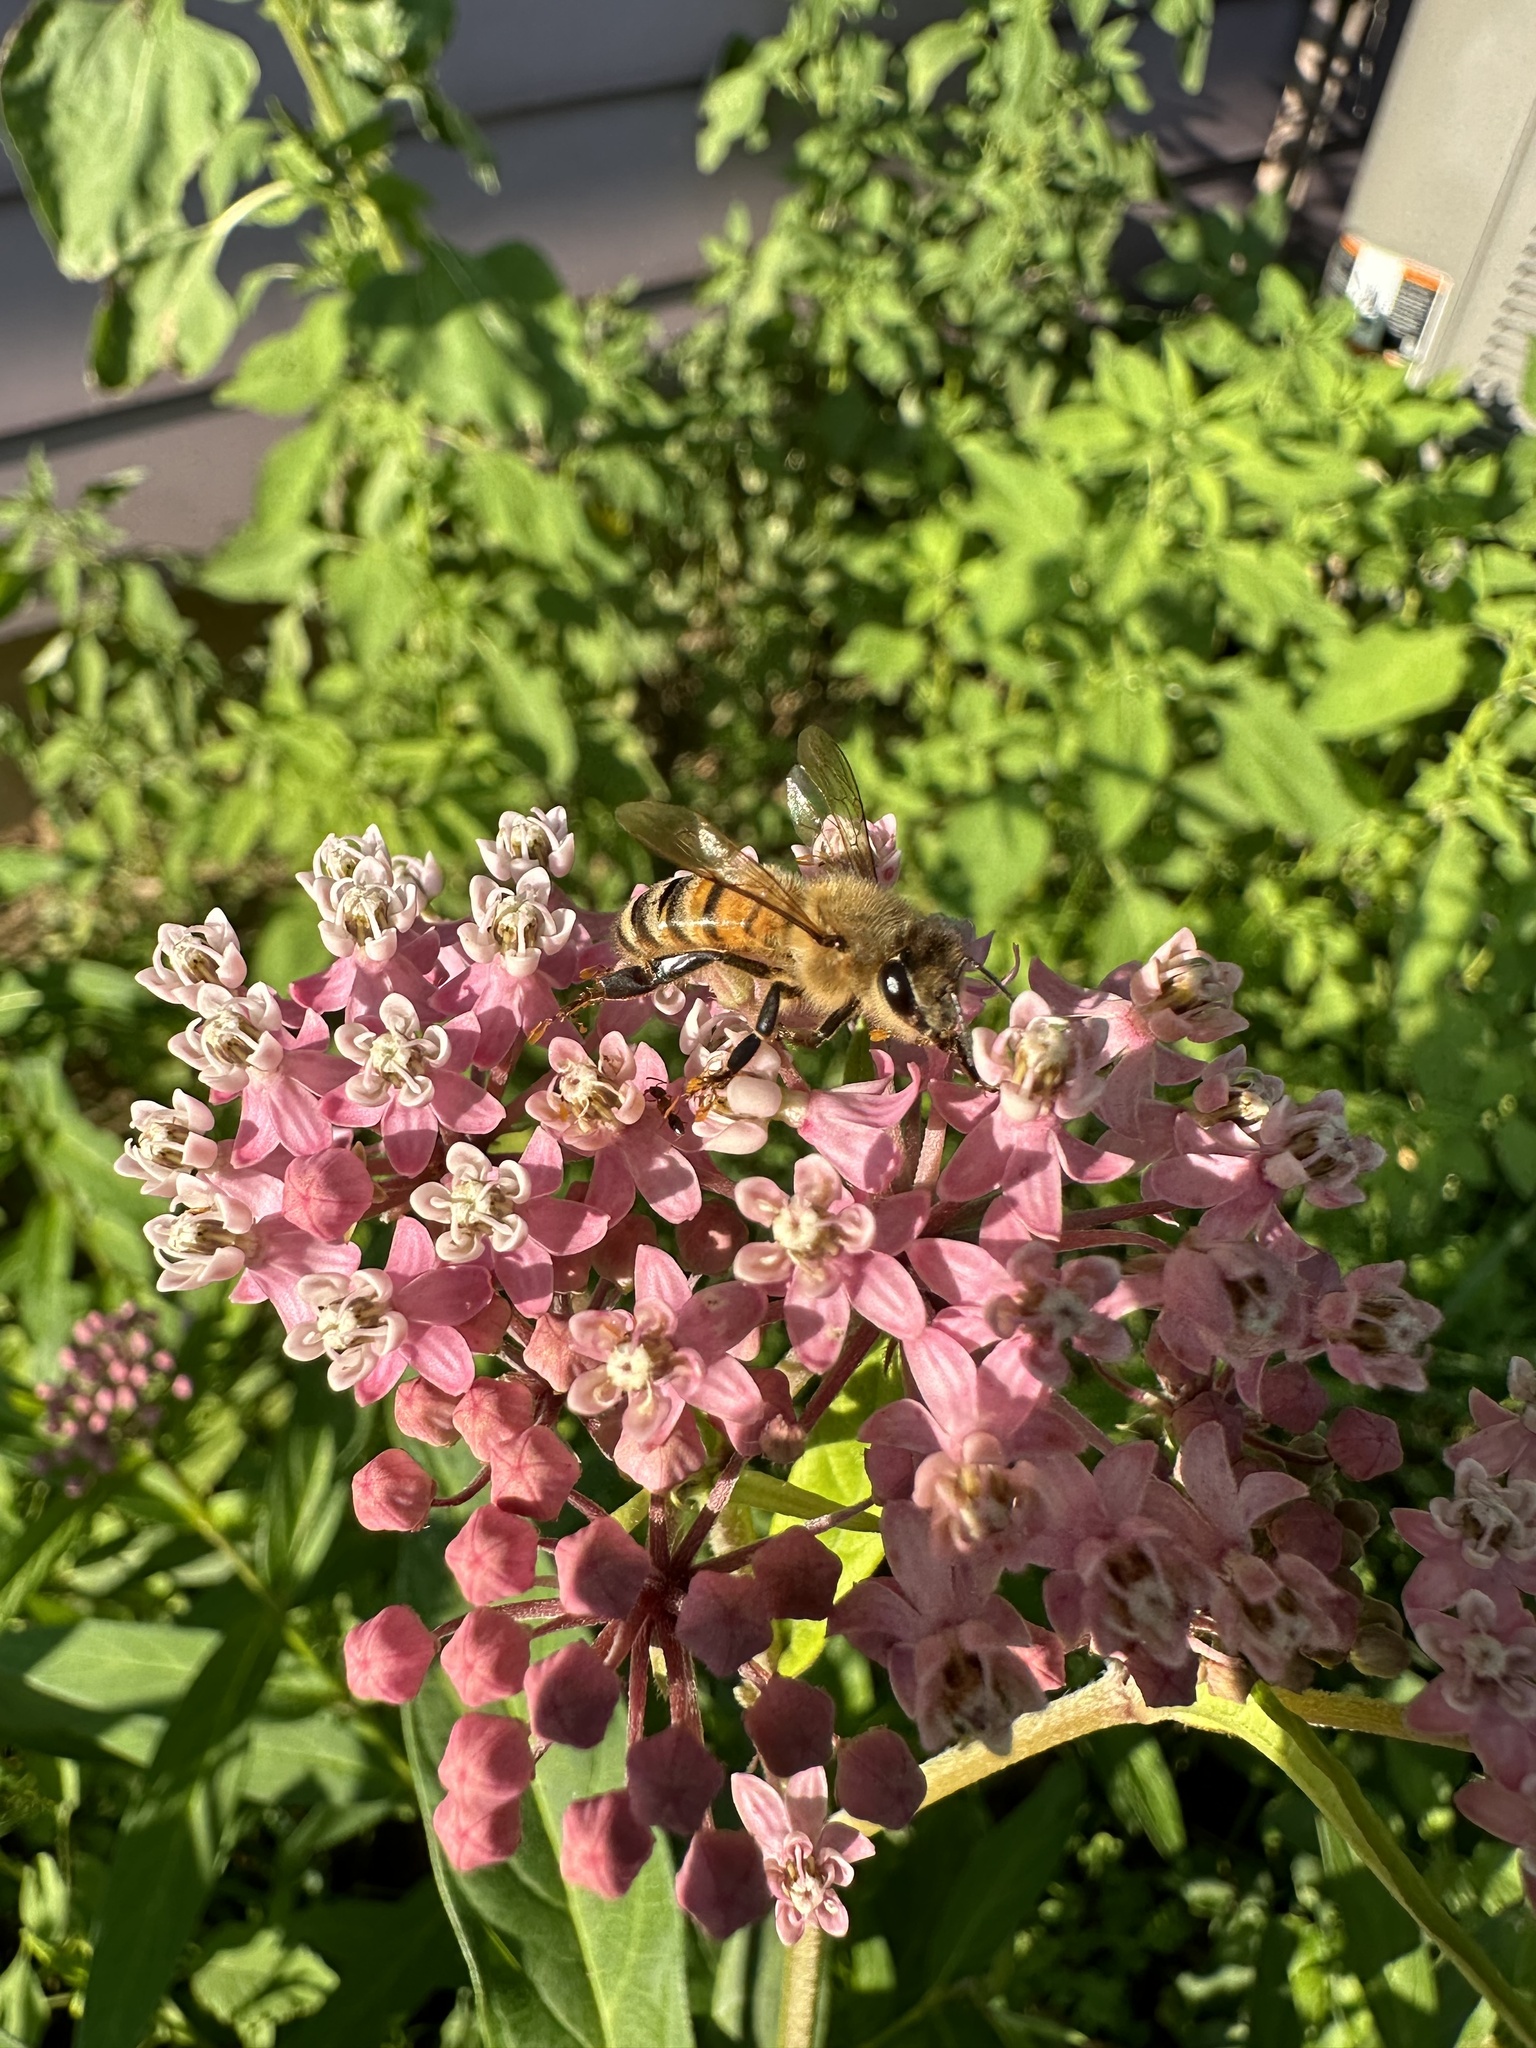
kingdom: Animalia
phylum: Arthropoda
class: Insecta
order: Hymenoptera
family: Apidae
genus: Apis
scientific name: Apis mellifera
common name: Honey bee
